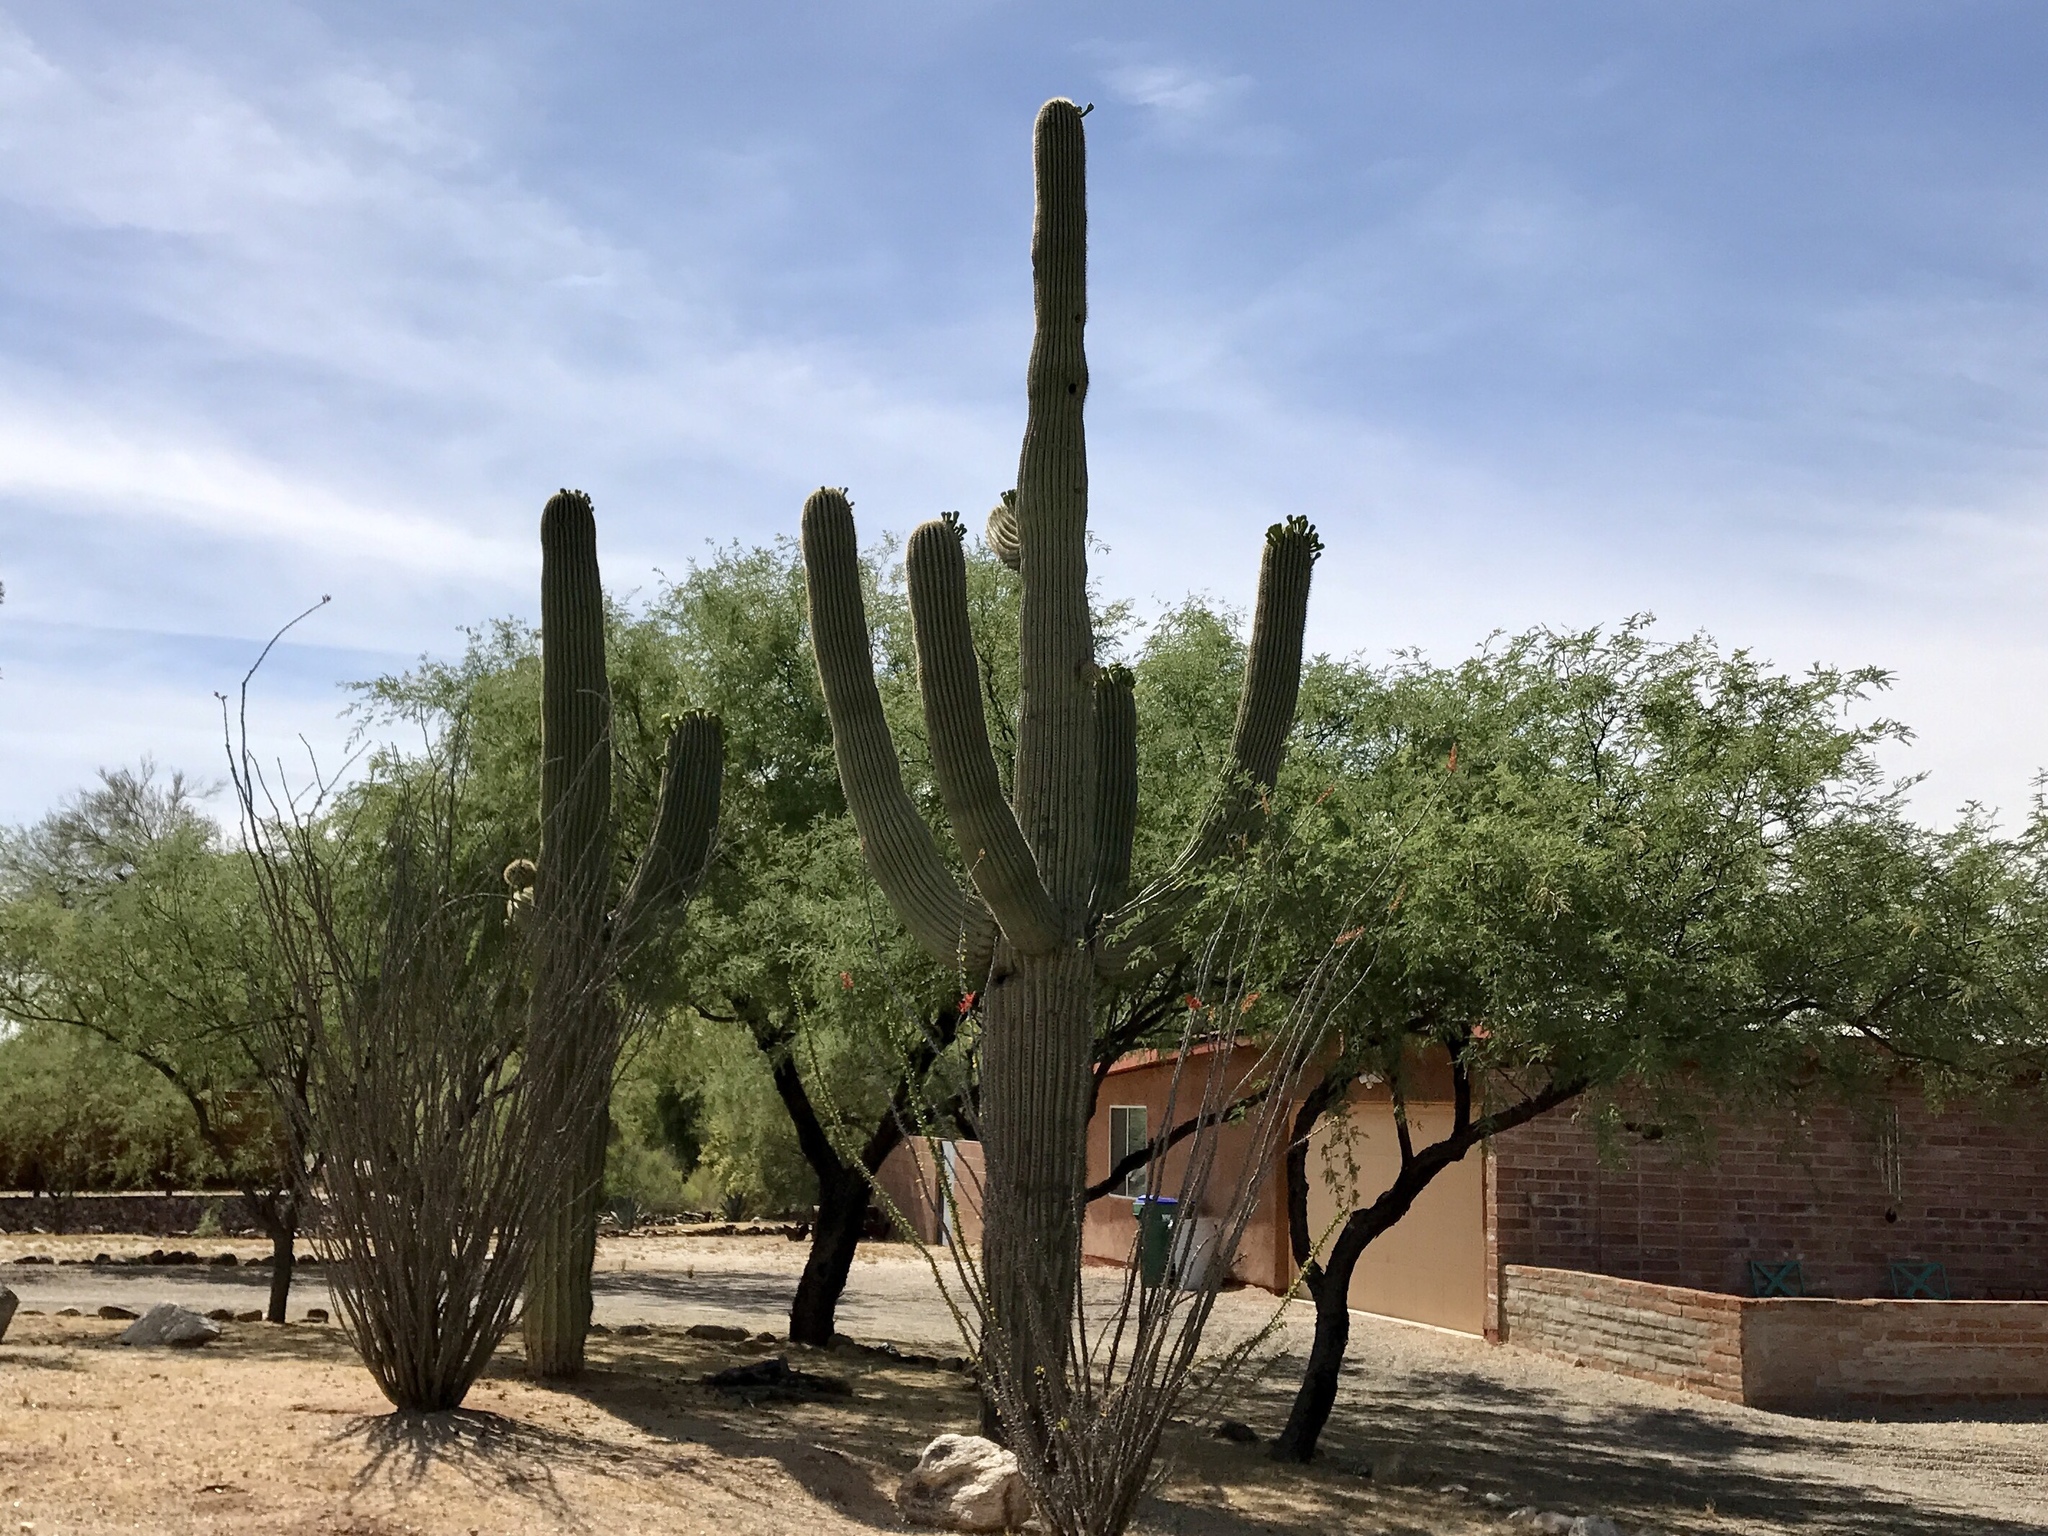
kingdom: Plantae
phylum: Tracheophyta
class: Magnoliopsida
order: Caryophyllales
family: Cactaceae
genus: Carnegiea
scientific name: Carnegiea gigantea
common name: Saguaro
